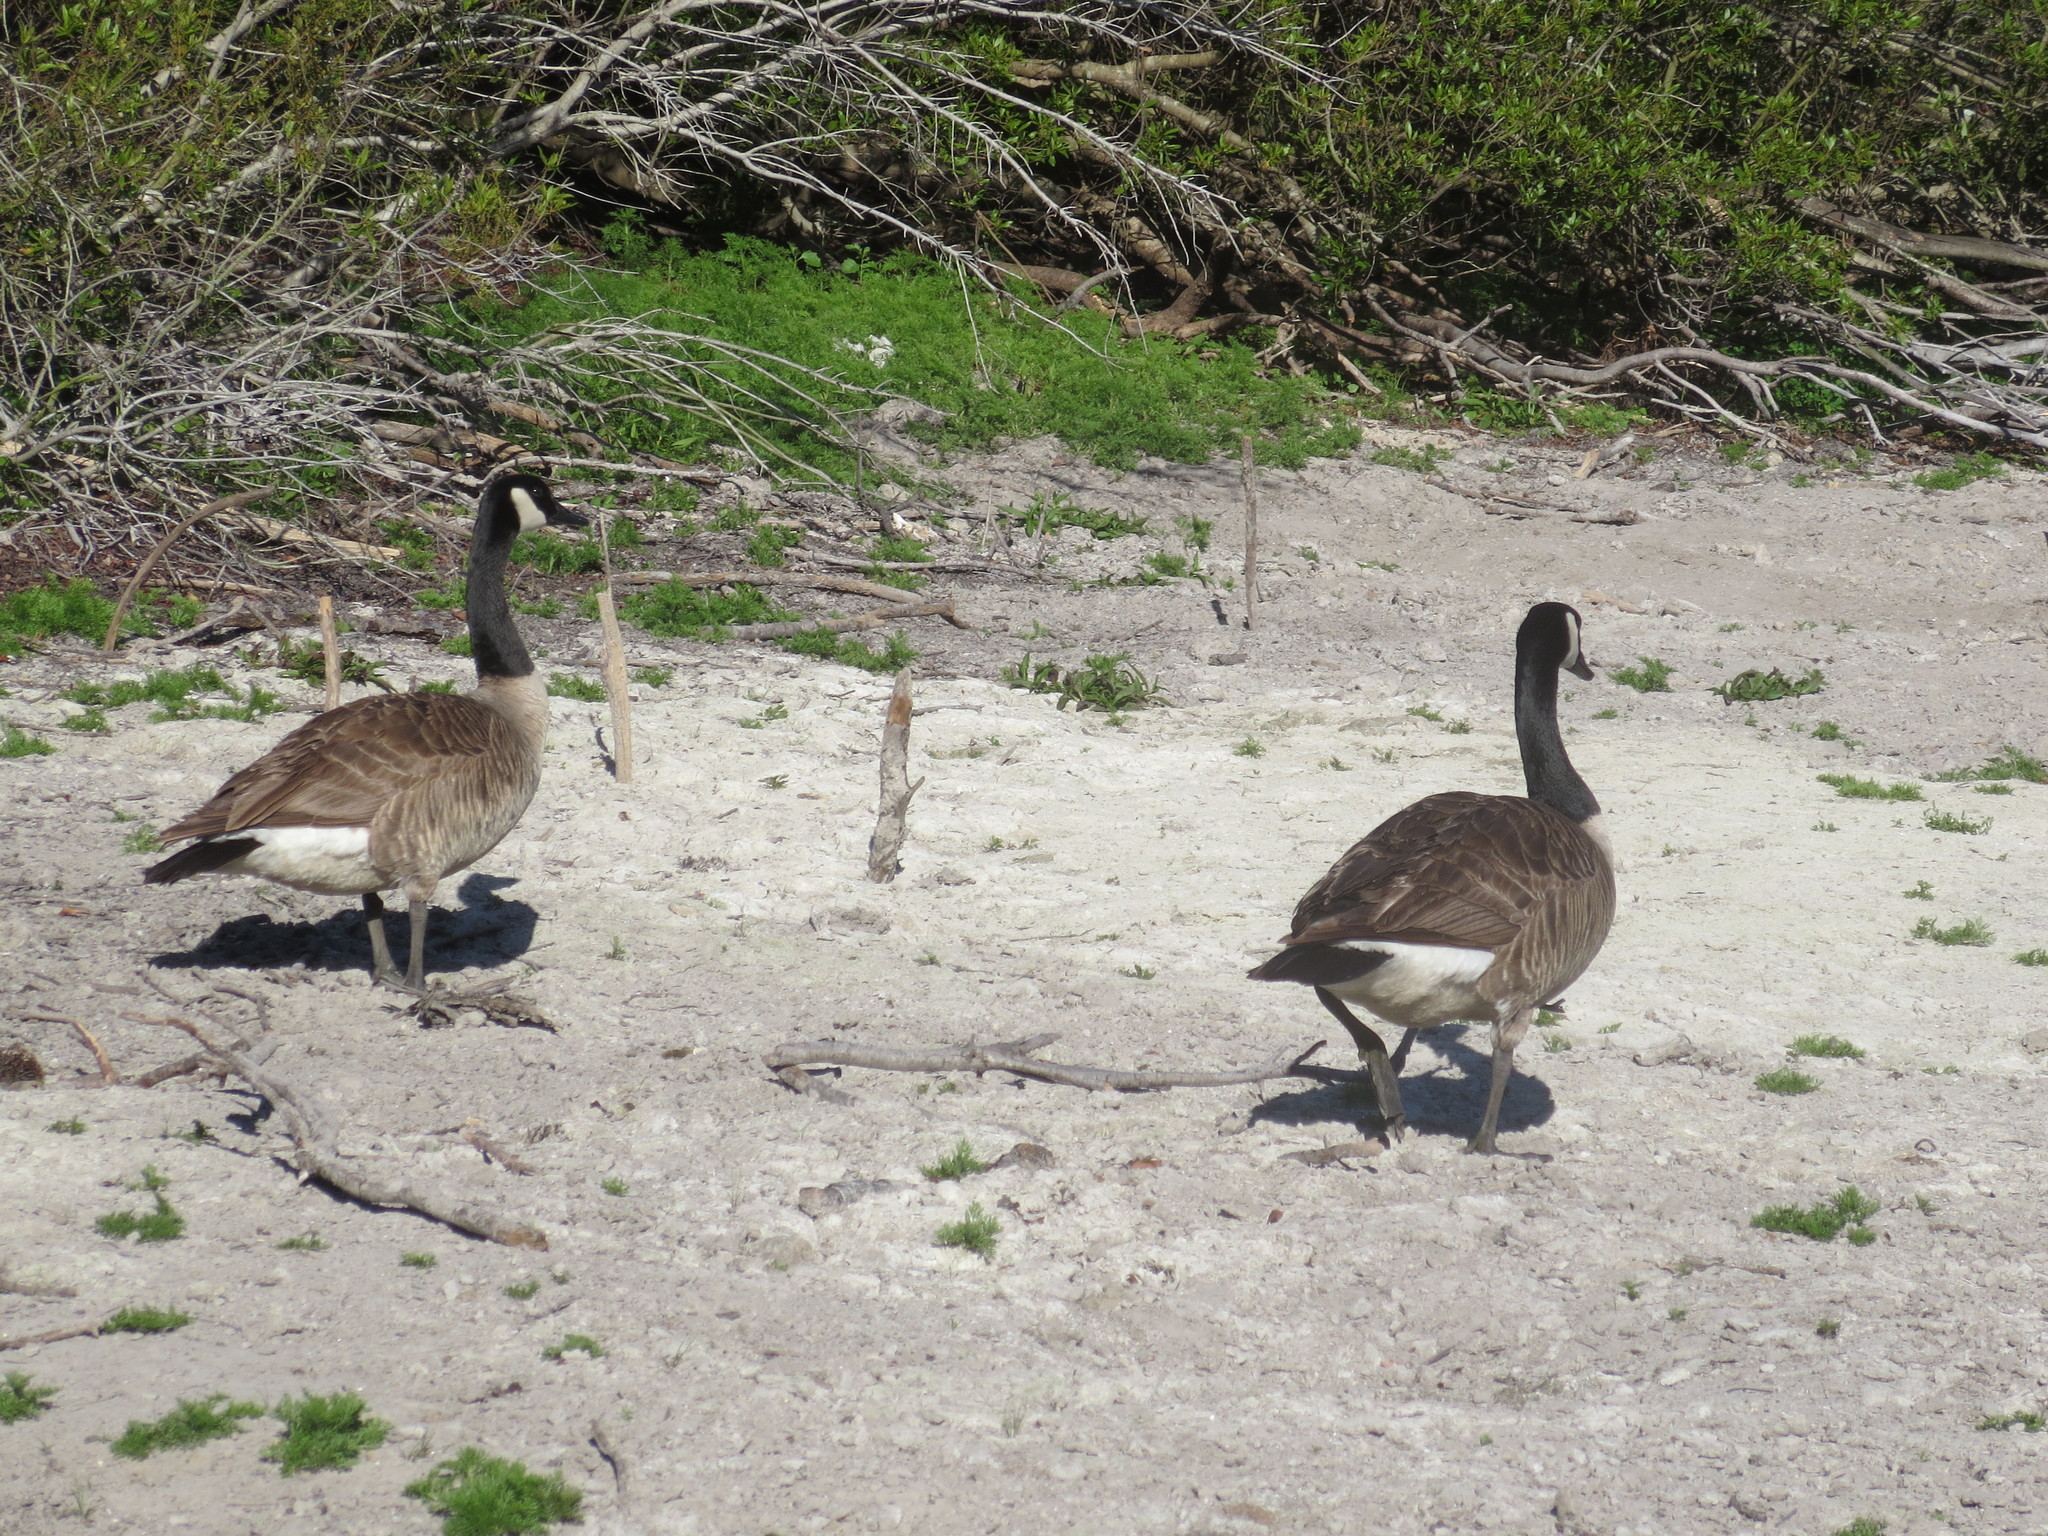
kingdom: Animalia
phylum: Chordata
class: Aves
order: Anseriformes
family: Anatidae
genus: Branta
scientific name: Branta canadensis
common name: Canada goose
